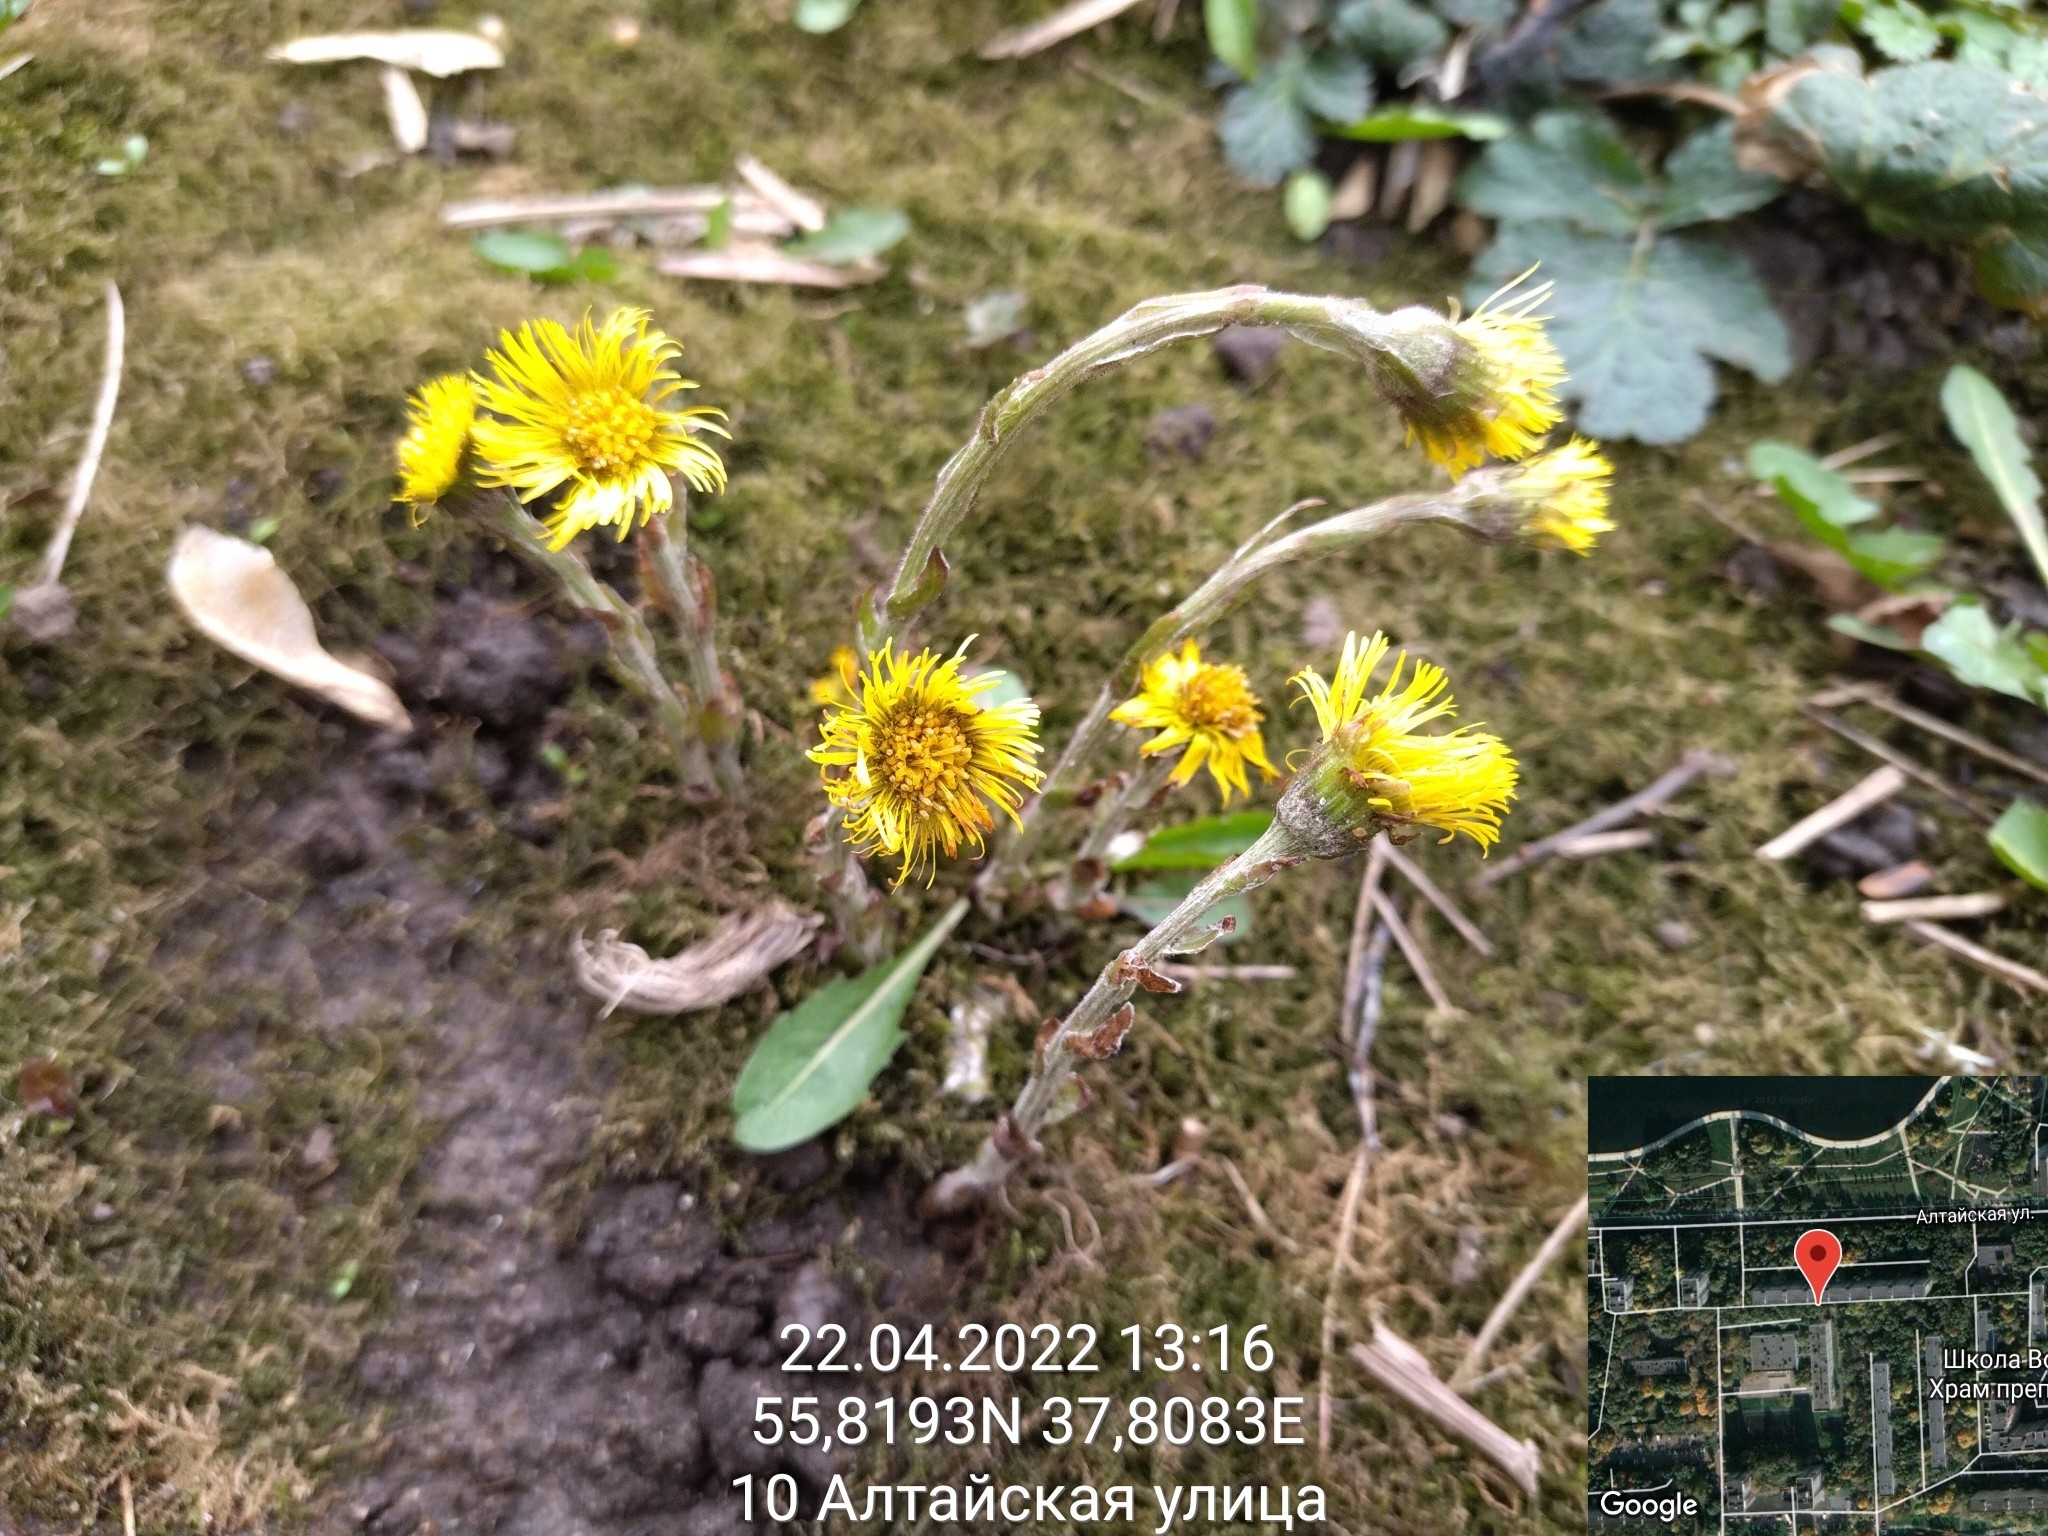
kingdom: Plantae
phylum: Tracheophyta
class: Magnoliopsida
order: Asterales
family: Asteraceae
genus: Tussilago
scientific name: Tussilago farfara
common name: Coltsfoot
